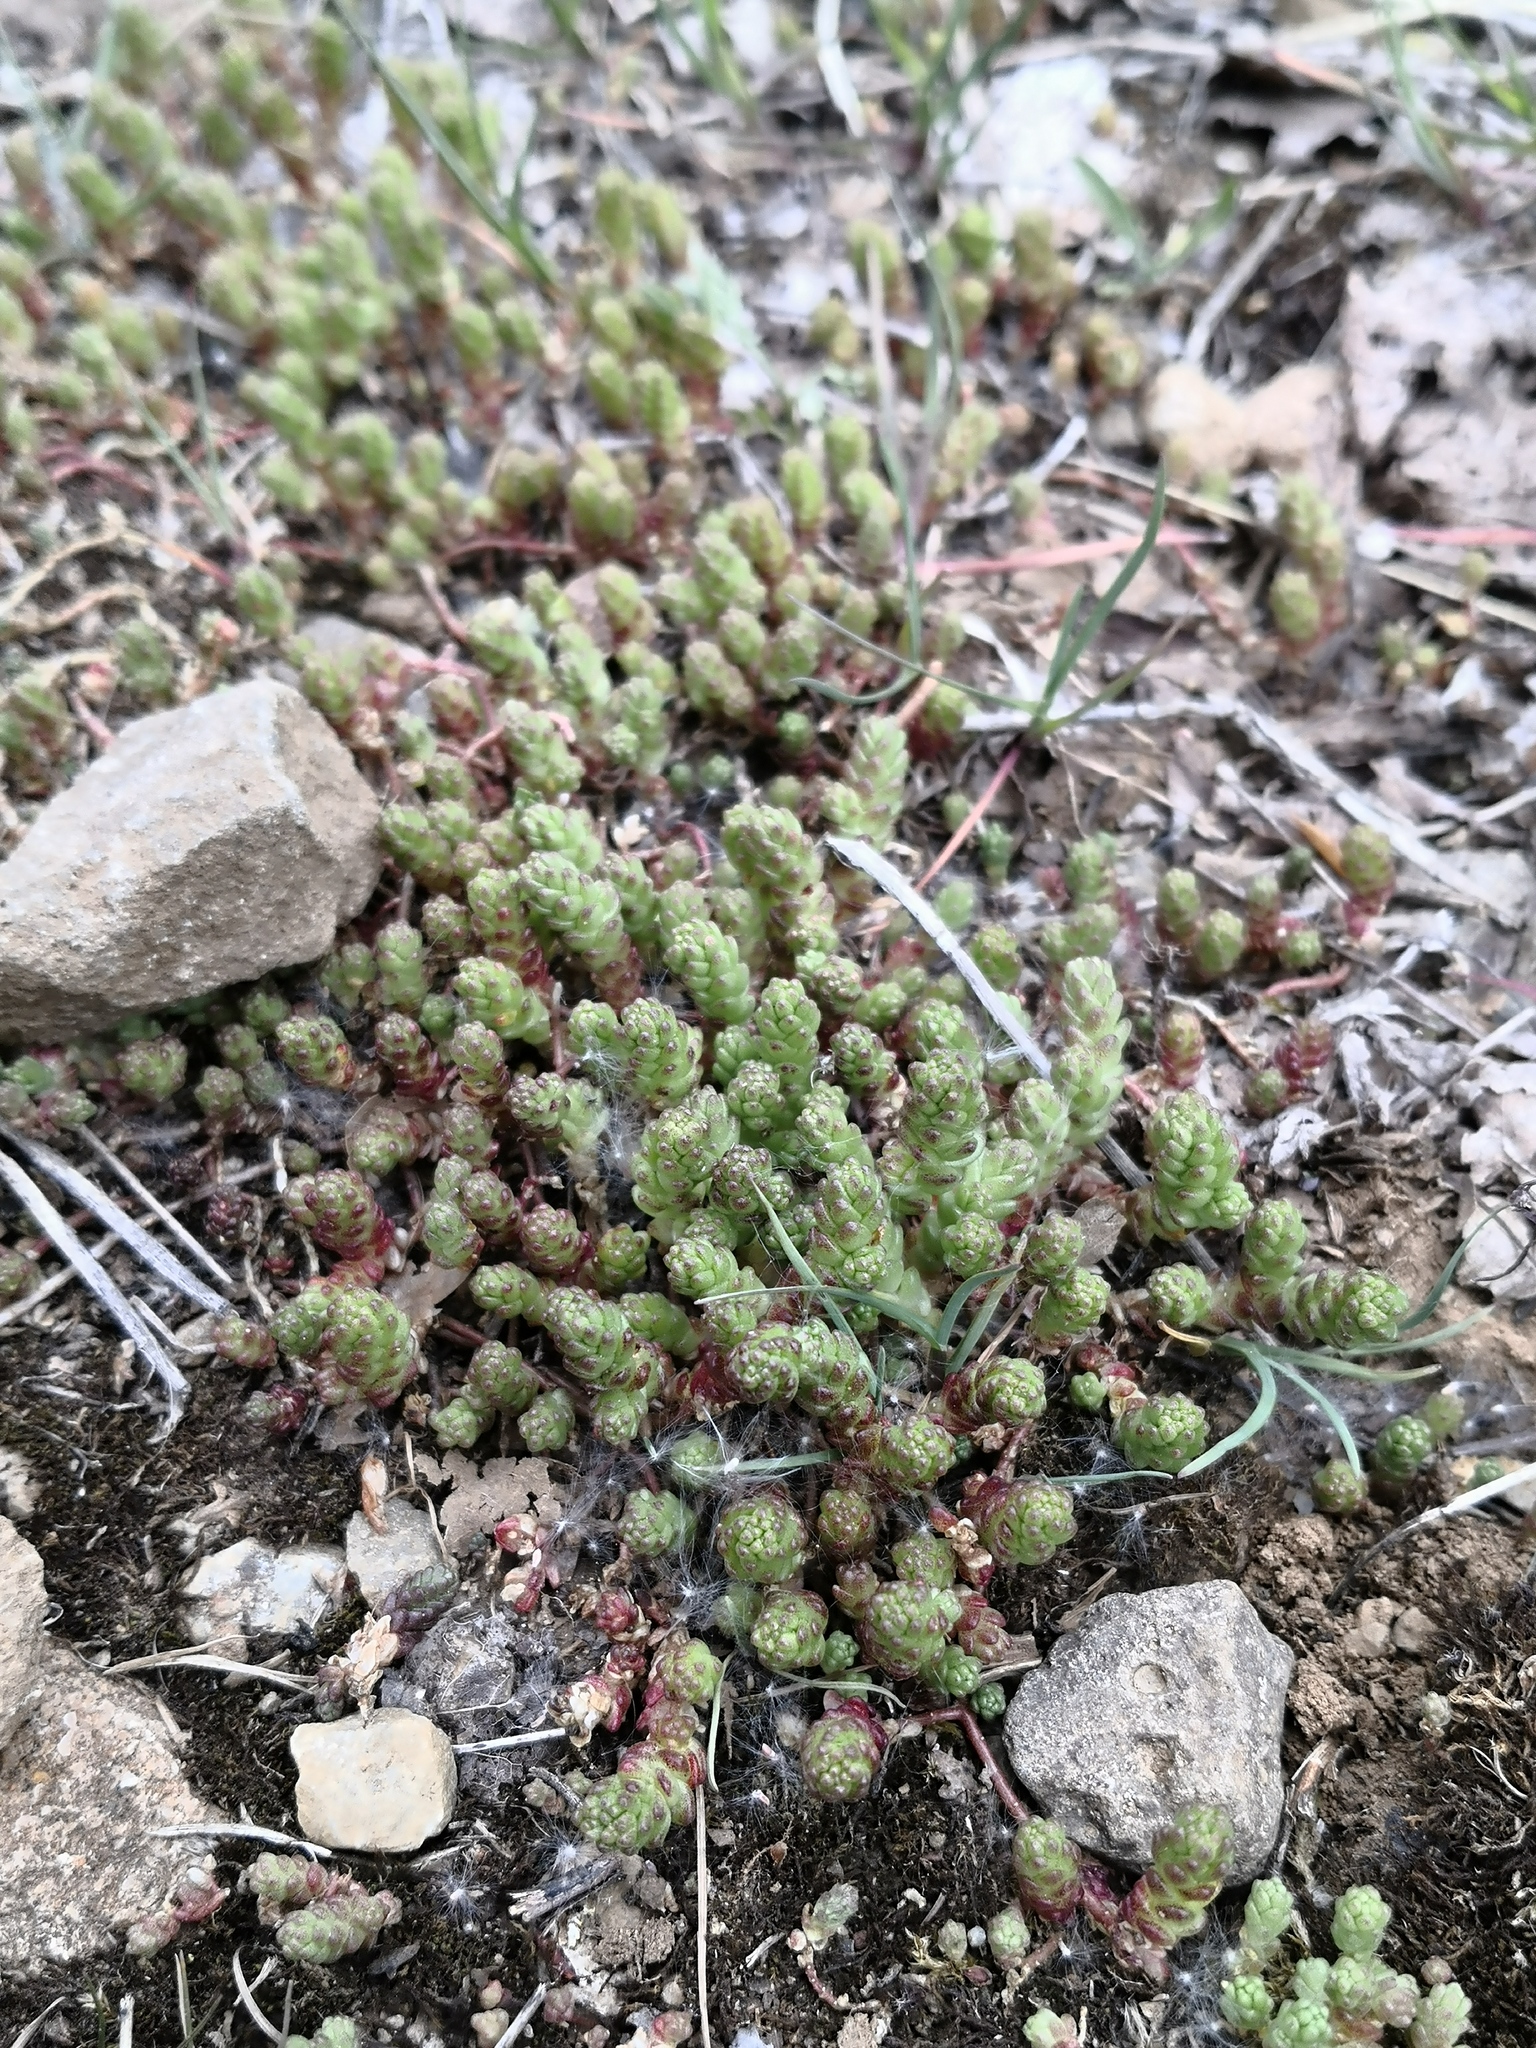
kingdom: Plantae
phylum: Tracheophyta
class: Magnoliopsida
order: Saxifragales
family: Crassulaceae
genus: Sedum
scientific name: Sedum acre
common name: Biting stonecrop
